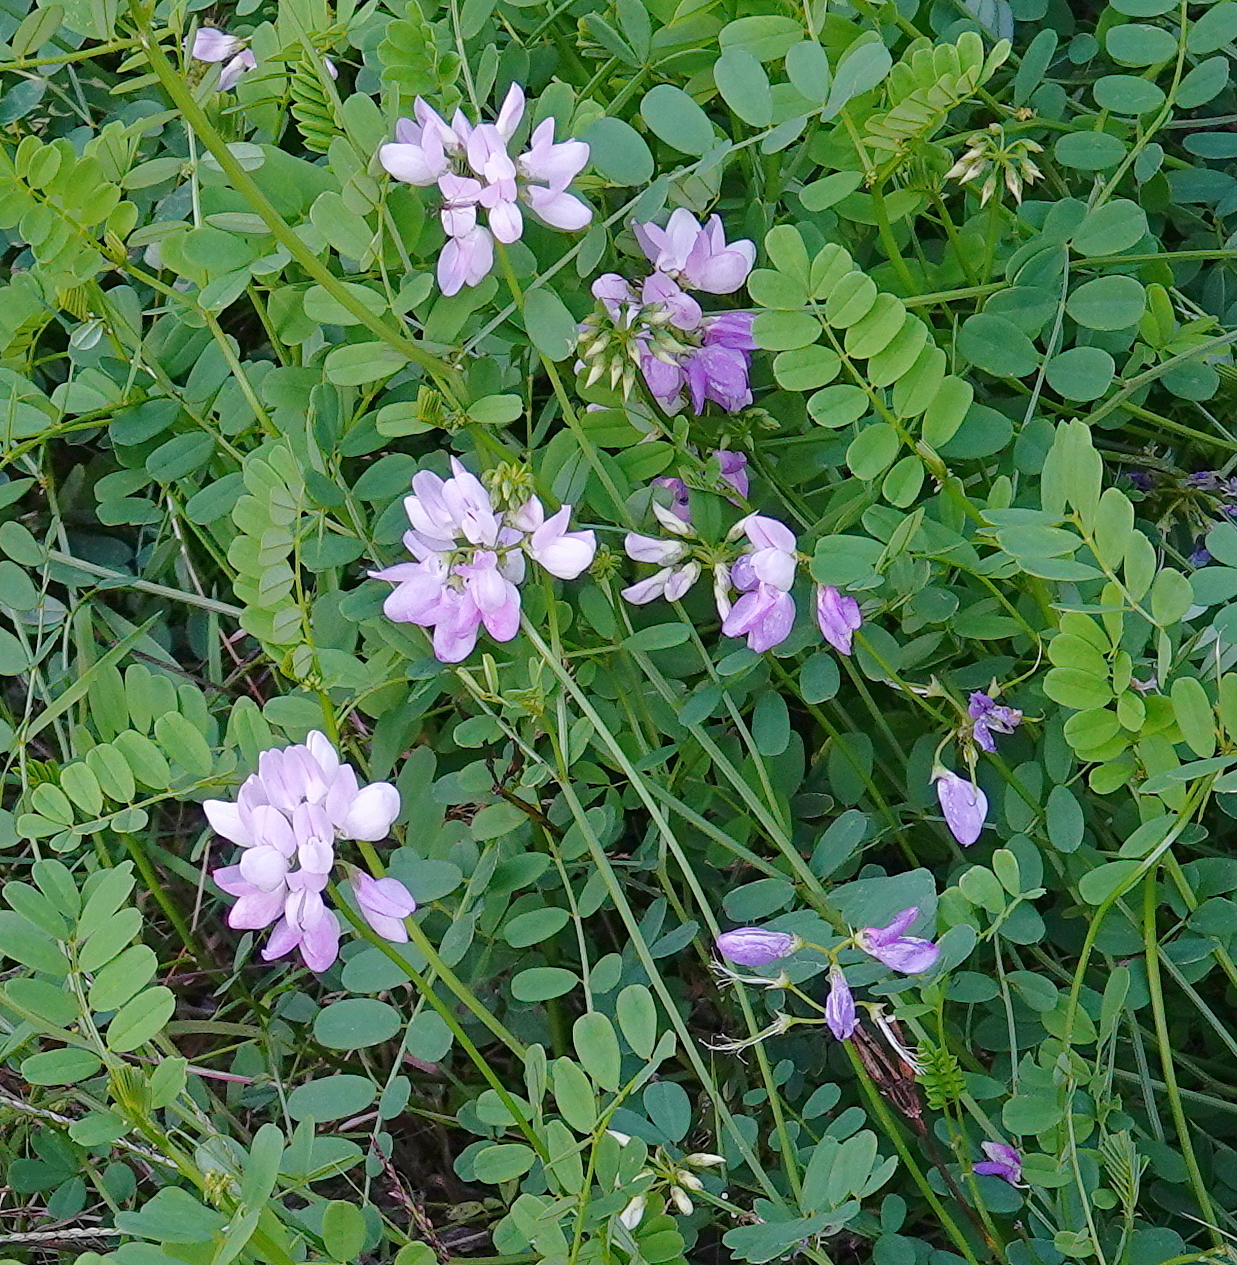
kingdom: Plantae
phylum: Tracheophyta
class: Magnoliopsida
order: Fabales
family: Fabaceae
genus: Coronilla
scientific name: Coronilla varia
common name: Crownvetch
